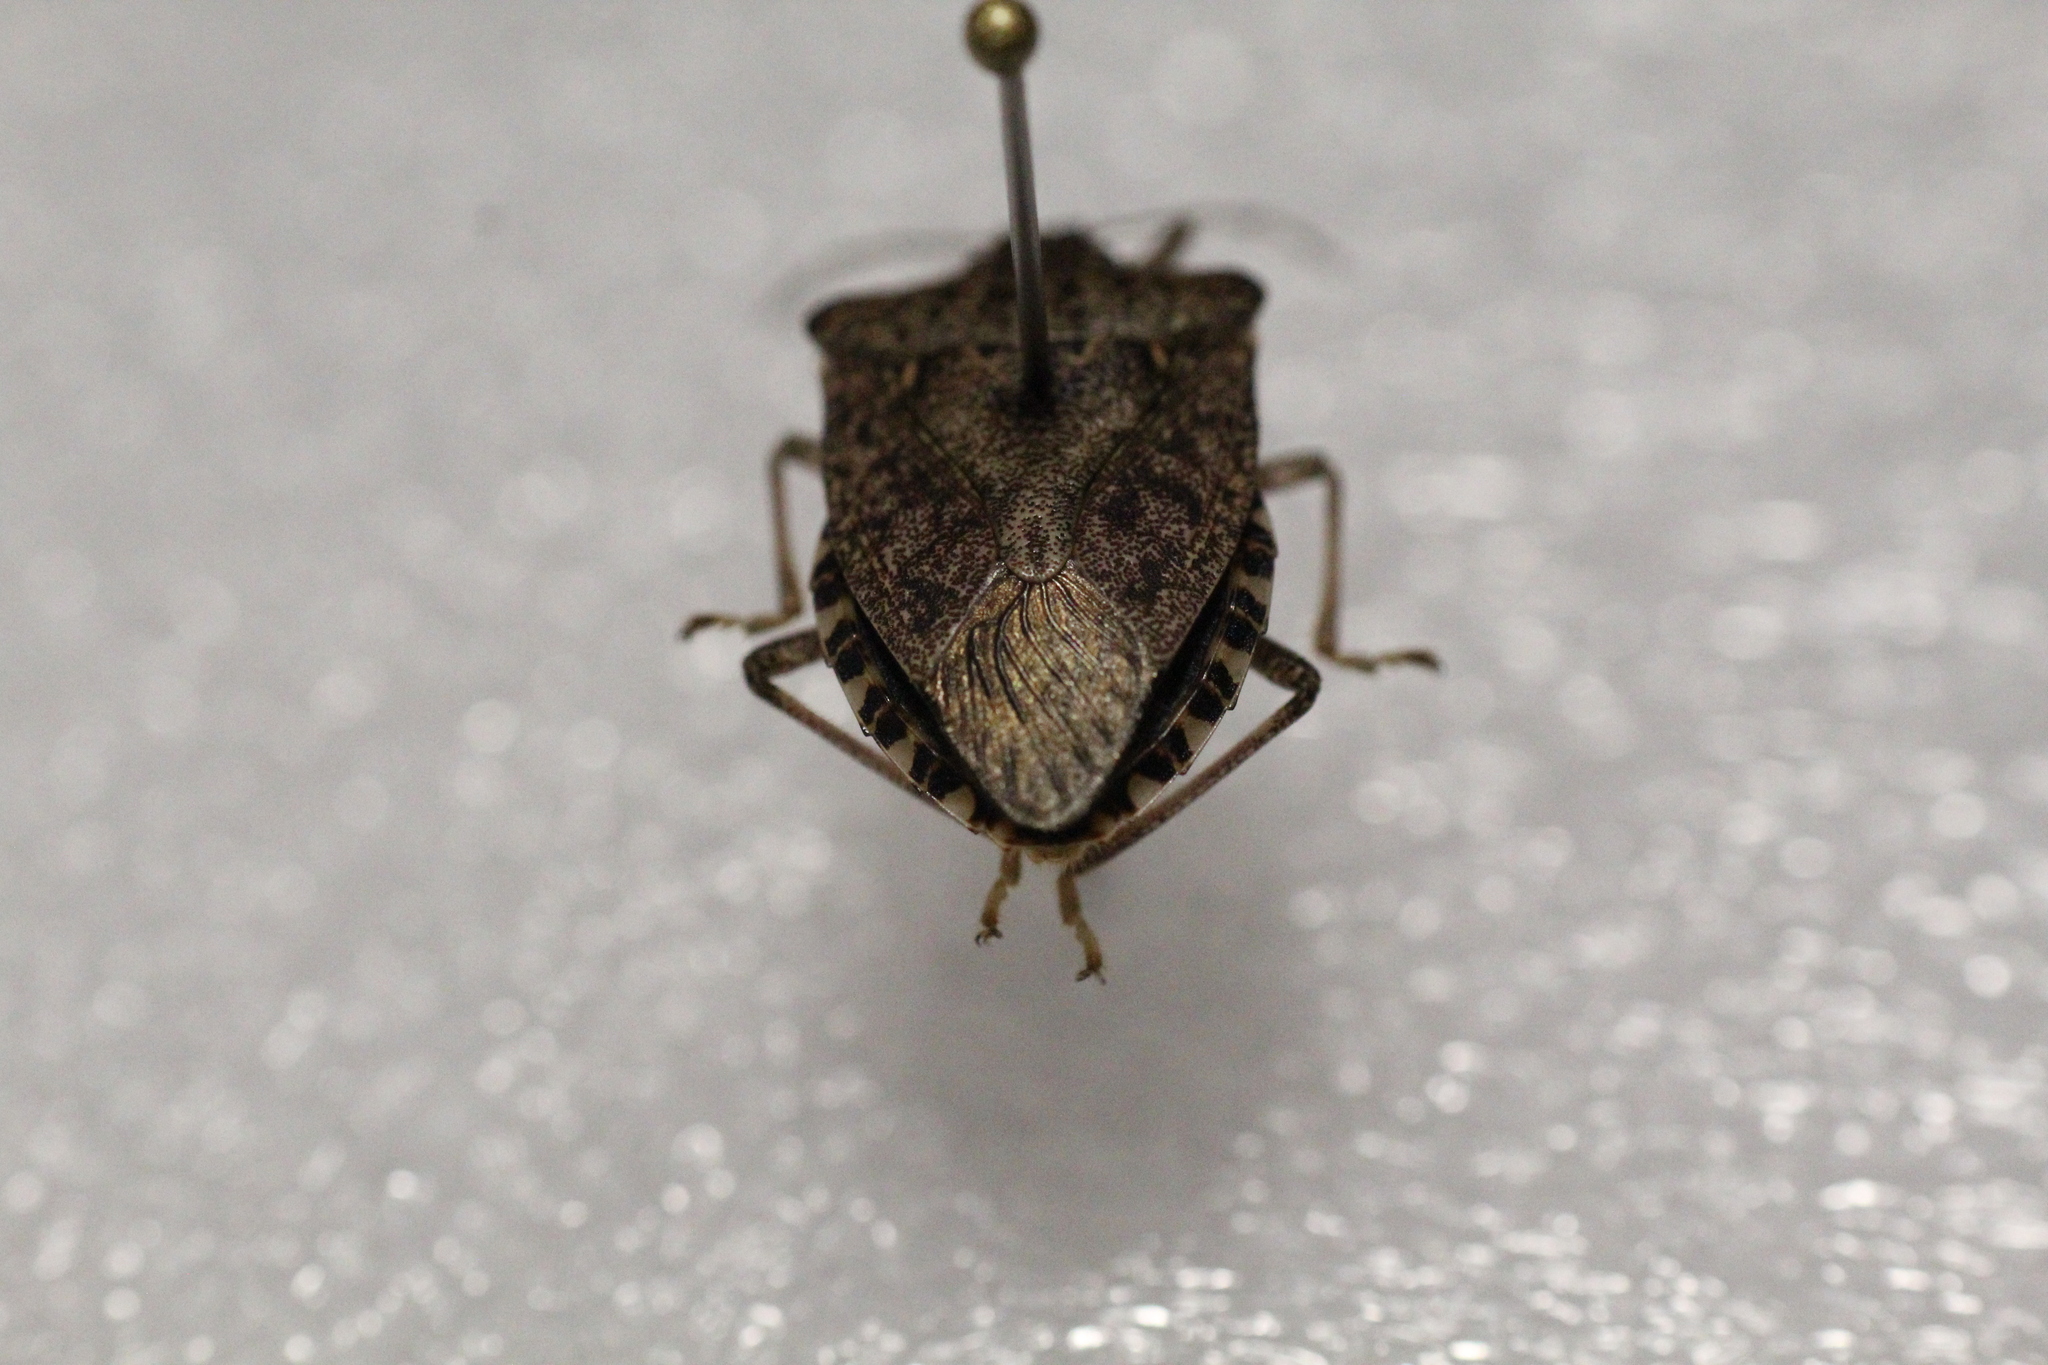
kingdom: Animalia
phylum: Arthropoda
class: Insecta
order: Hemiptera
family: Pentatomidae
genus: Halyomorpha
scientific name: Halyomorpha halys
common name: Brown marmorated stink bug
